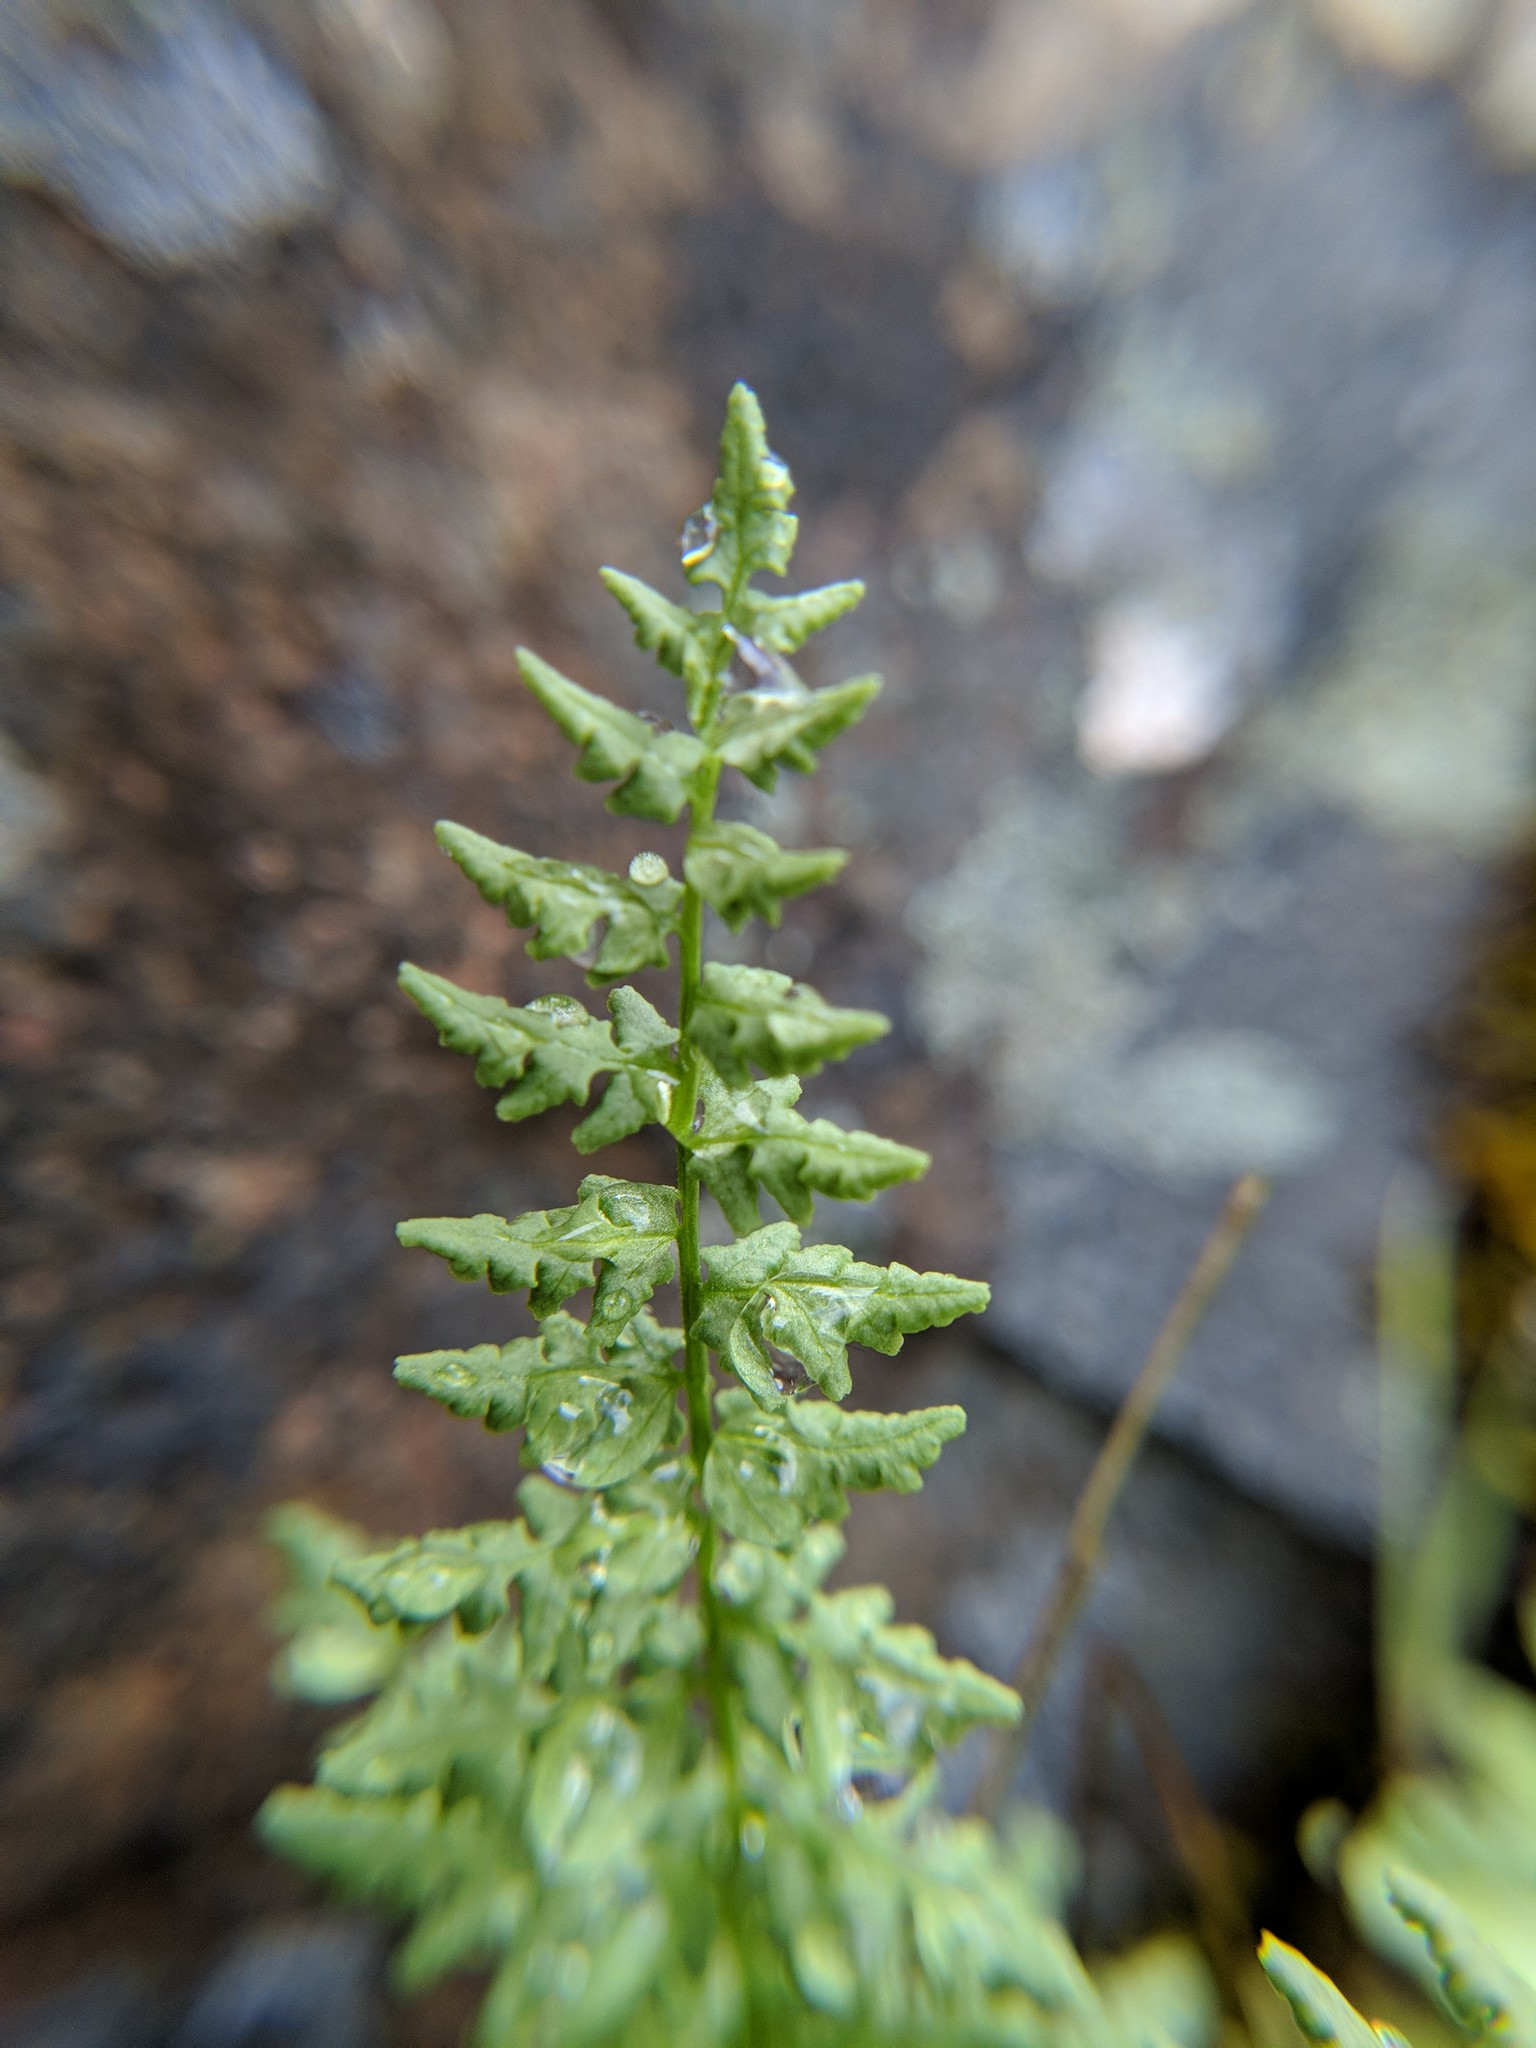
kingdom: Plantae
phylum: Tracheophyta
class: Polypodiopsida
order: Polypodiales
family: Woodsiaceae
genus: Physematium
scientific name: Physematium oreganum
